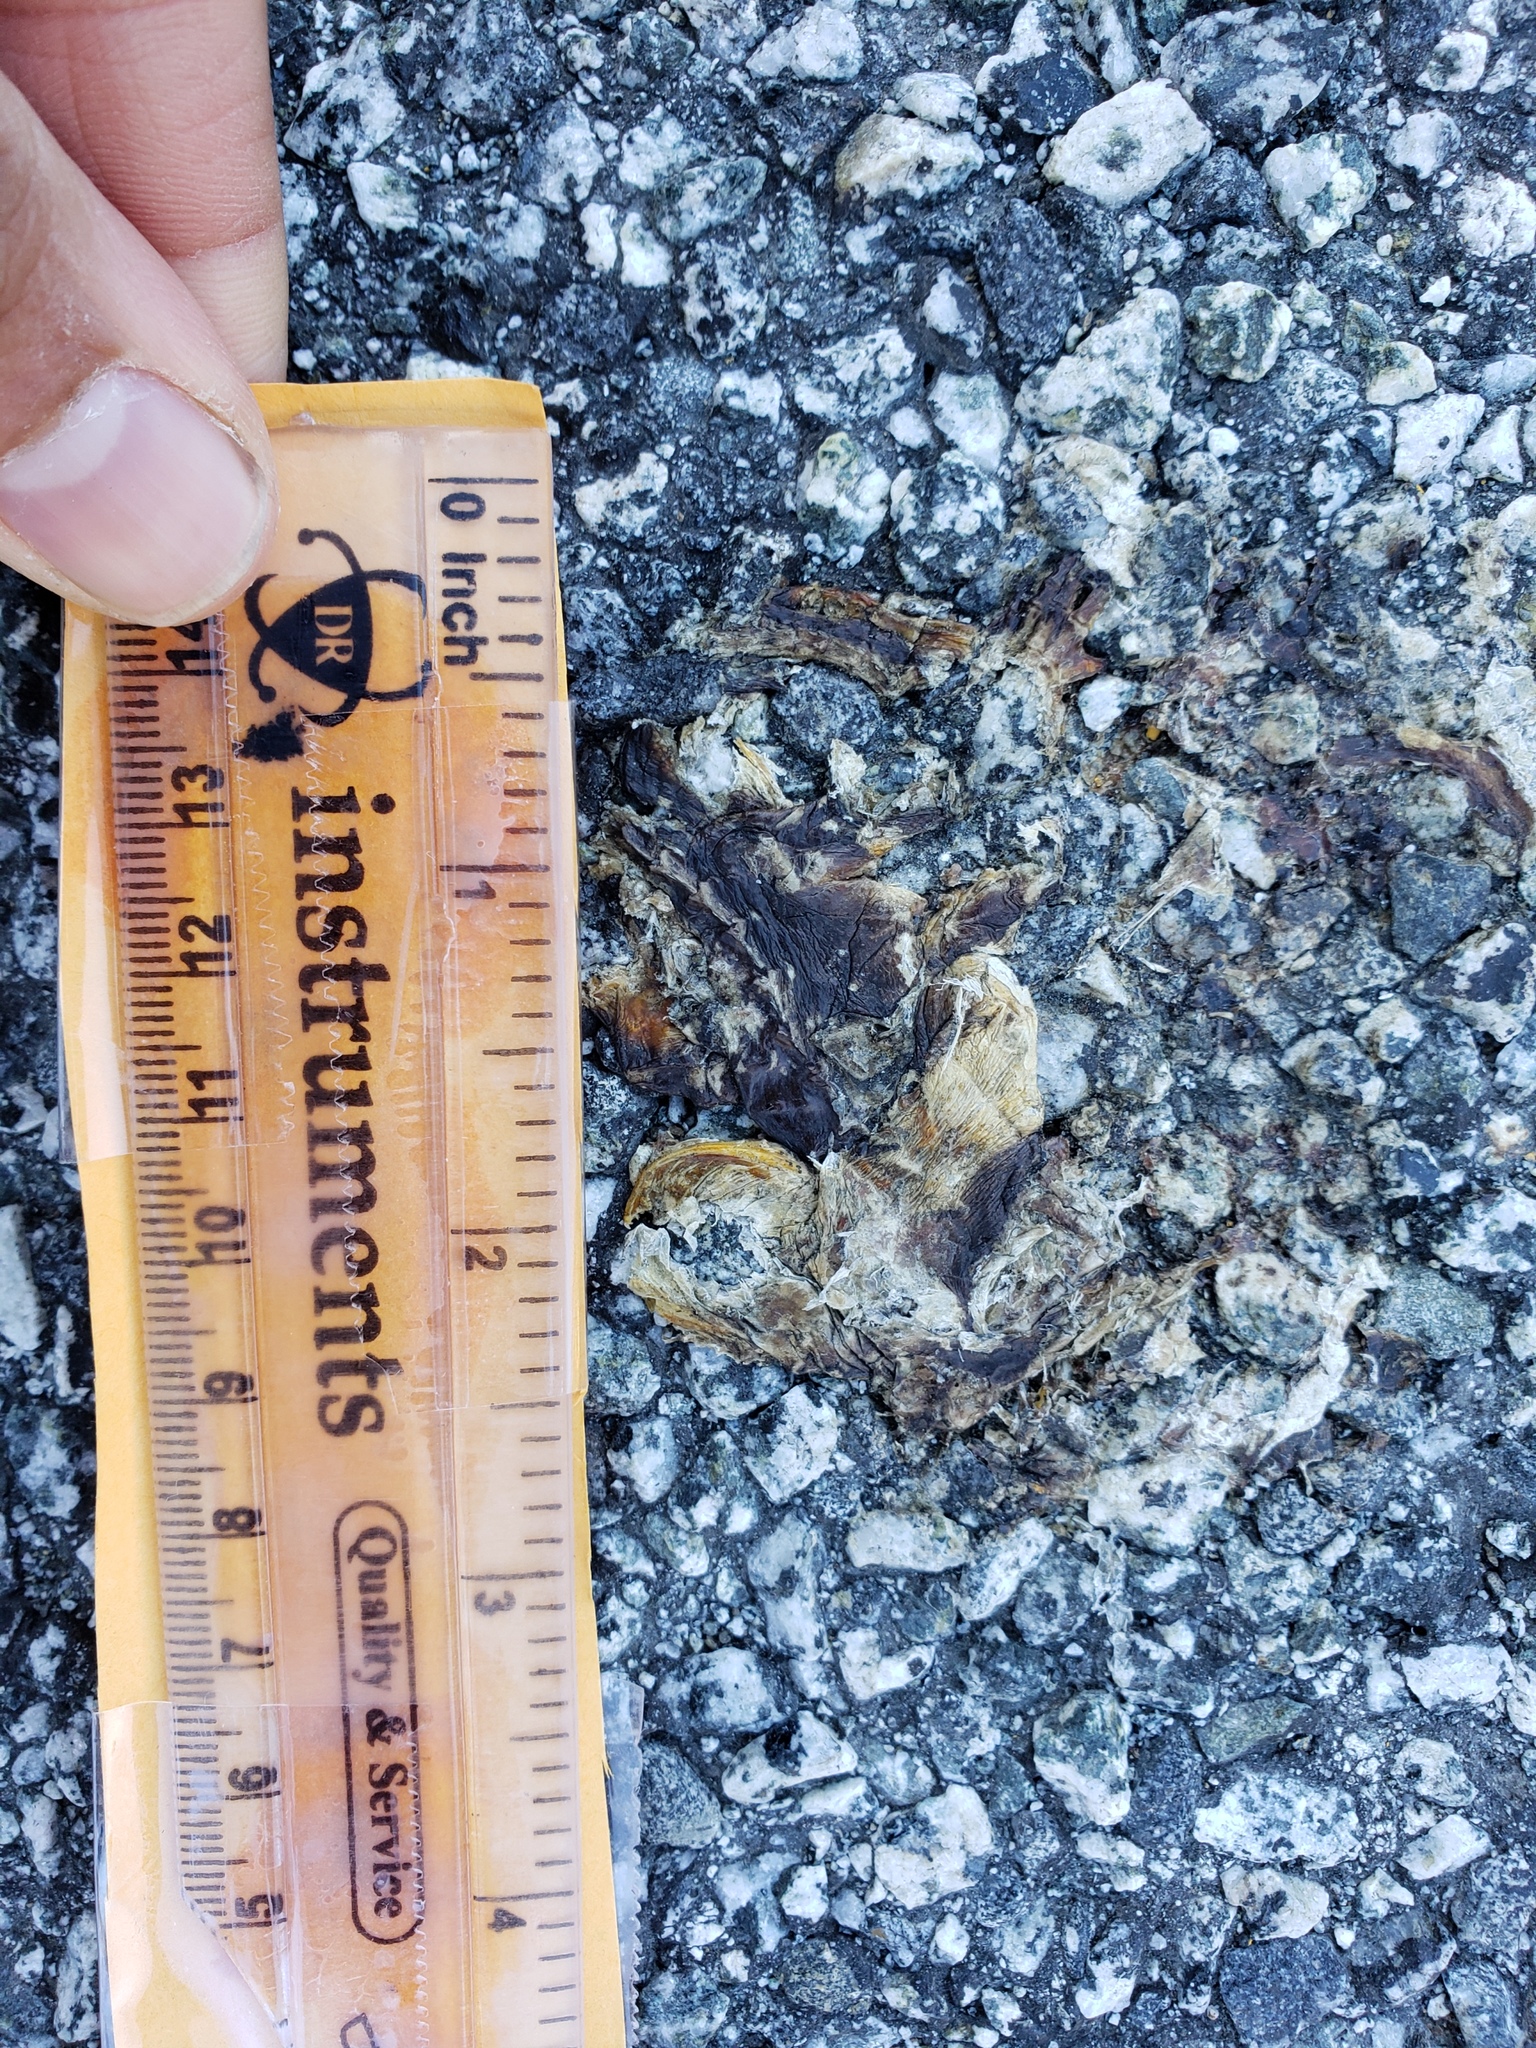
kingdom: Animalia
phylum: Chordata
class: Amphibia
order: Caudata
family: Salamandridae
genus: Taricha
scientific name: Taricha
